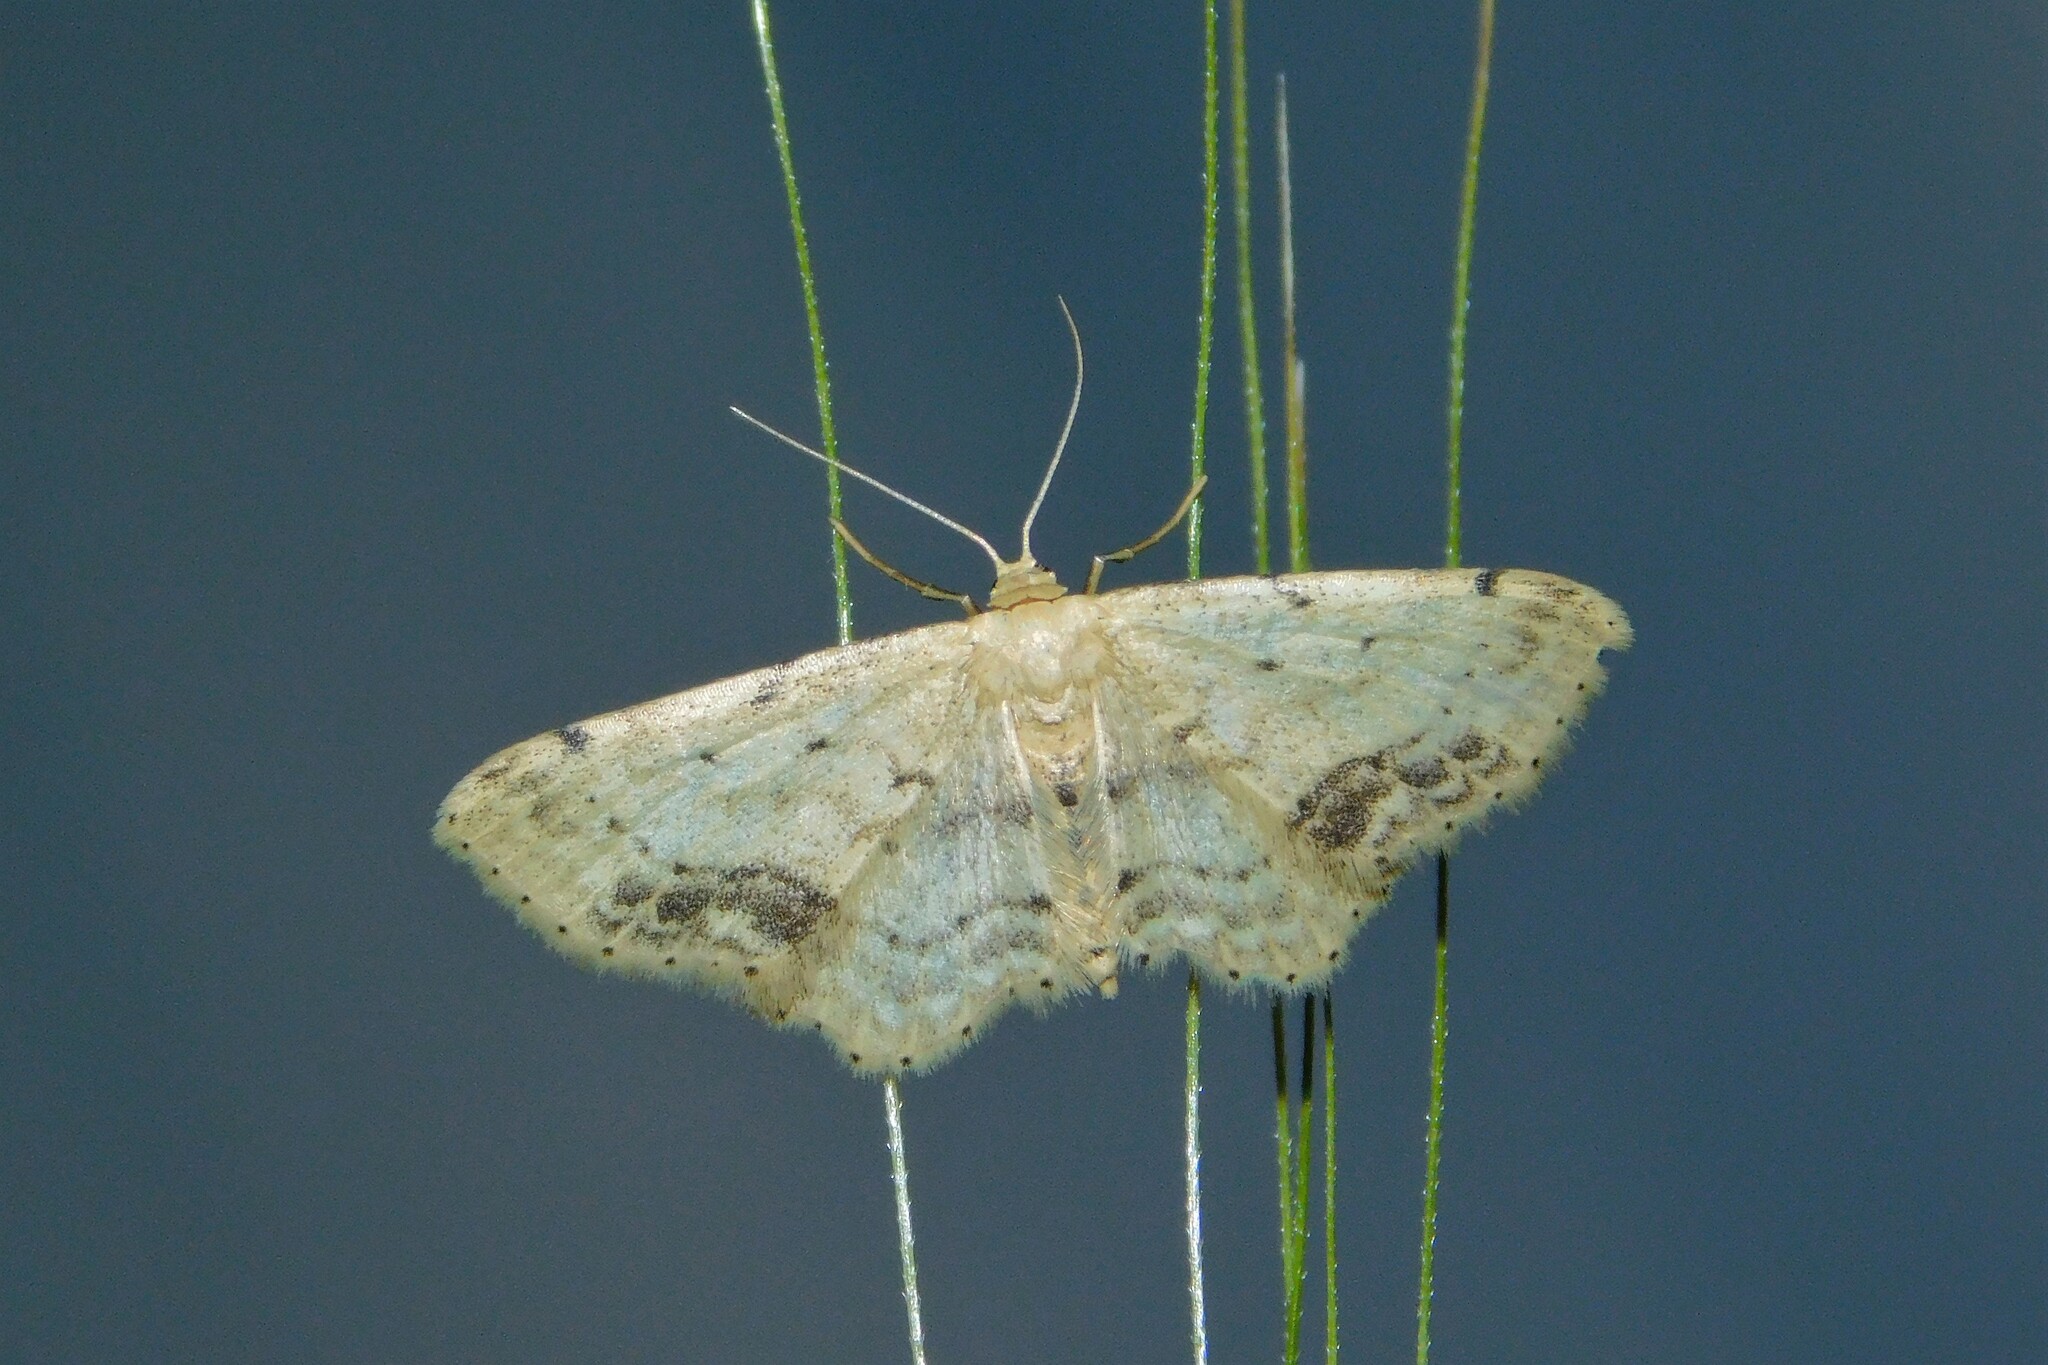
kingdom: Animalia
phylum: Arthropoda
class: Insecta
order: Lepidoptera
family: Geometridae
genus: Idaea
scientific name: Idaea dimidiata
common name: Single-dotted wave
